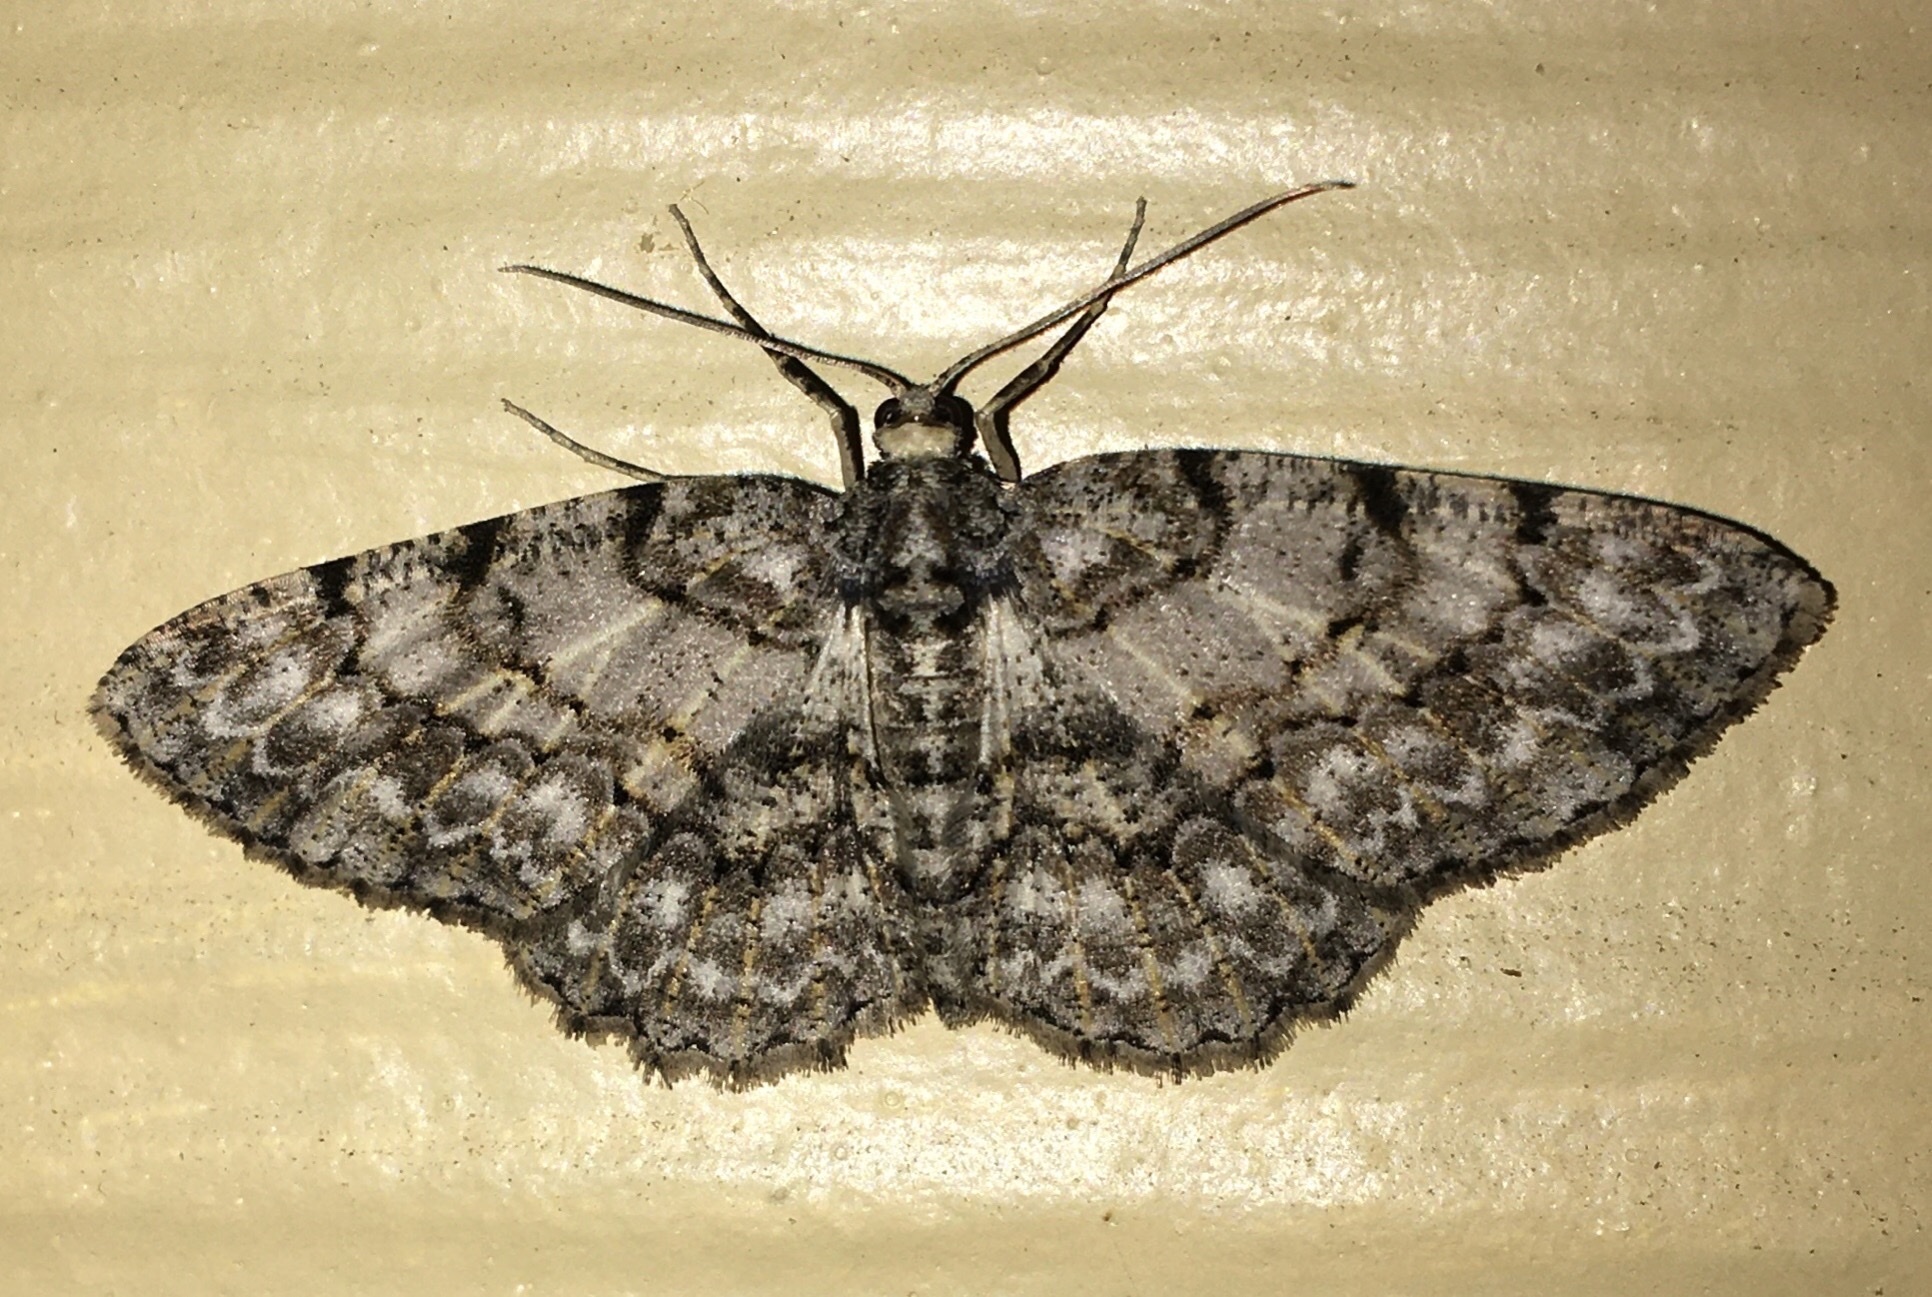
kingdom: Animalia
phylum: Arthropoda
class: Insecta
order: Lepidoptera
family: Geometridae
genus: Protoboarmia
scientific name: Protoboarmia porcelaria
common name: Porcelain gray
